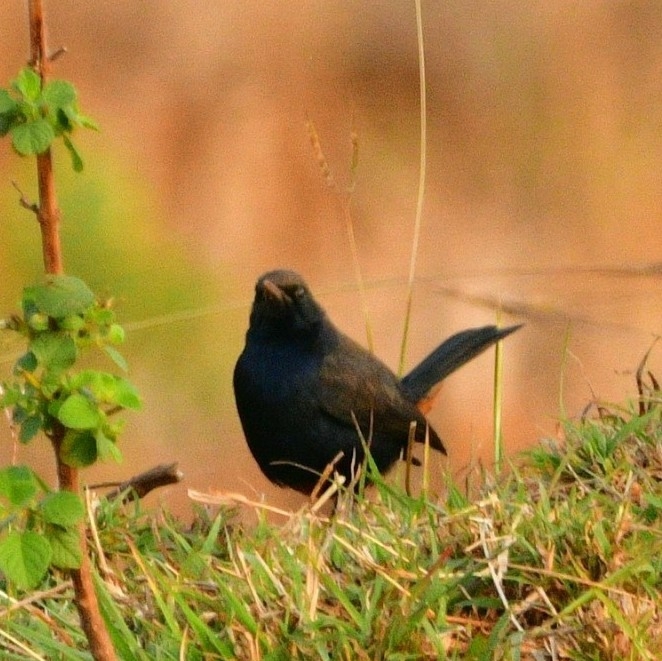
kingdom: Animalia
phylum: Chordata
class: Aves
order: Passeriformes
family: Muscicapidae
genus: Saxicoloides
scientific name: Saxicoloides fulicatus
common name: Indian robin
